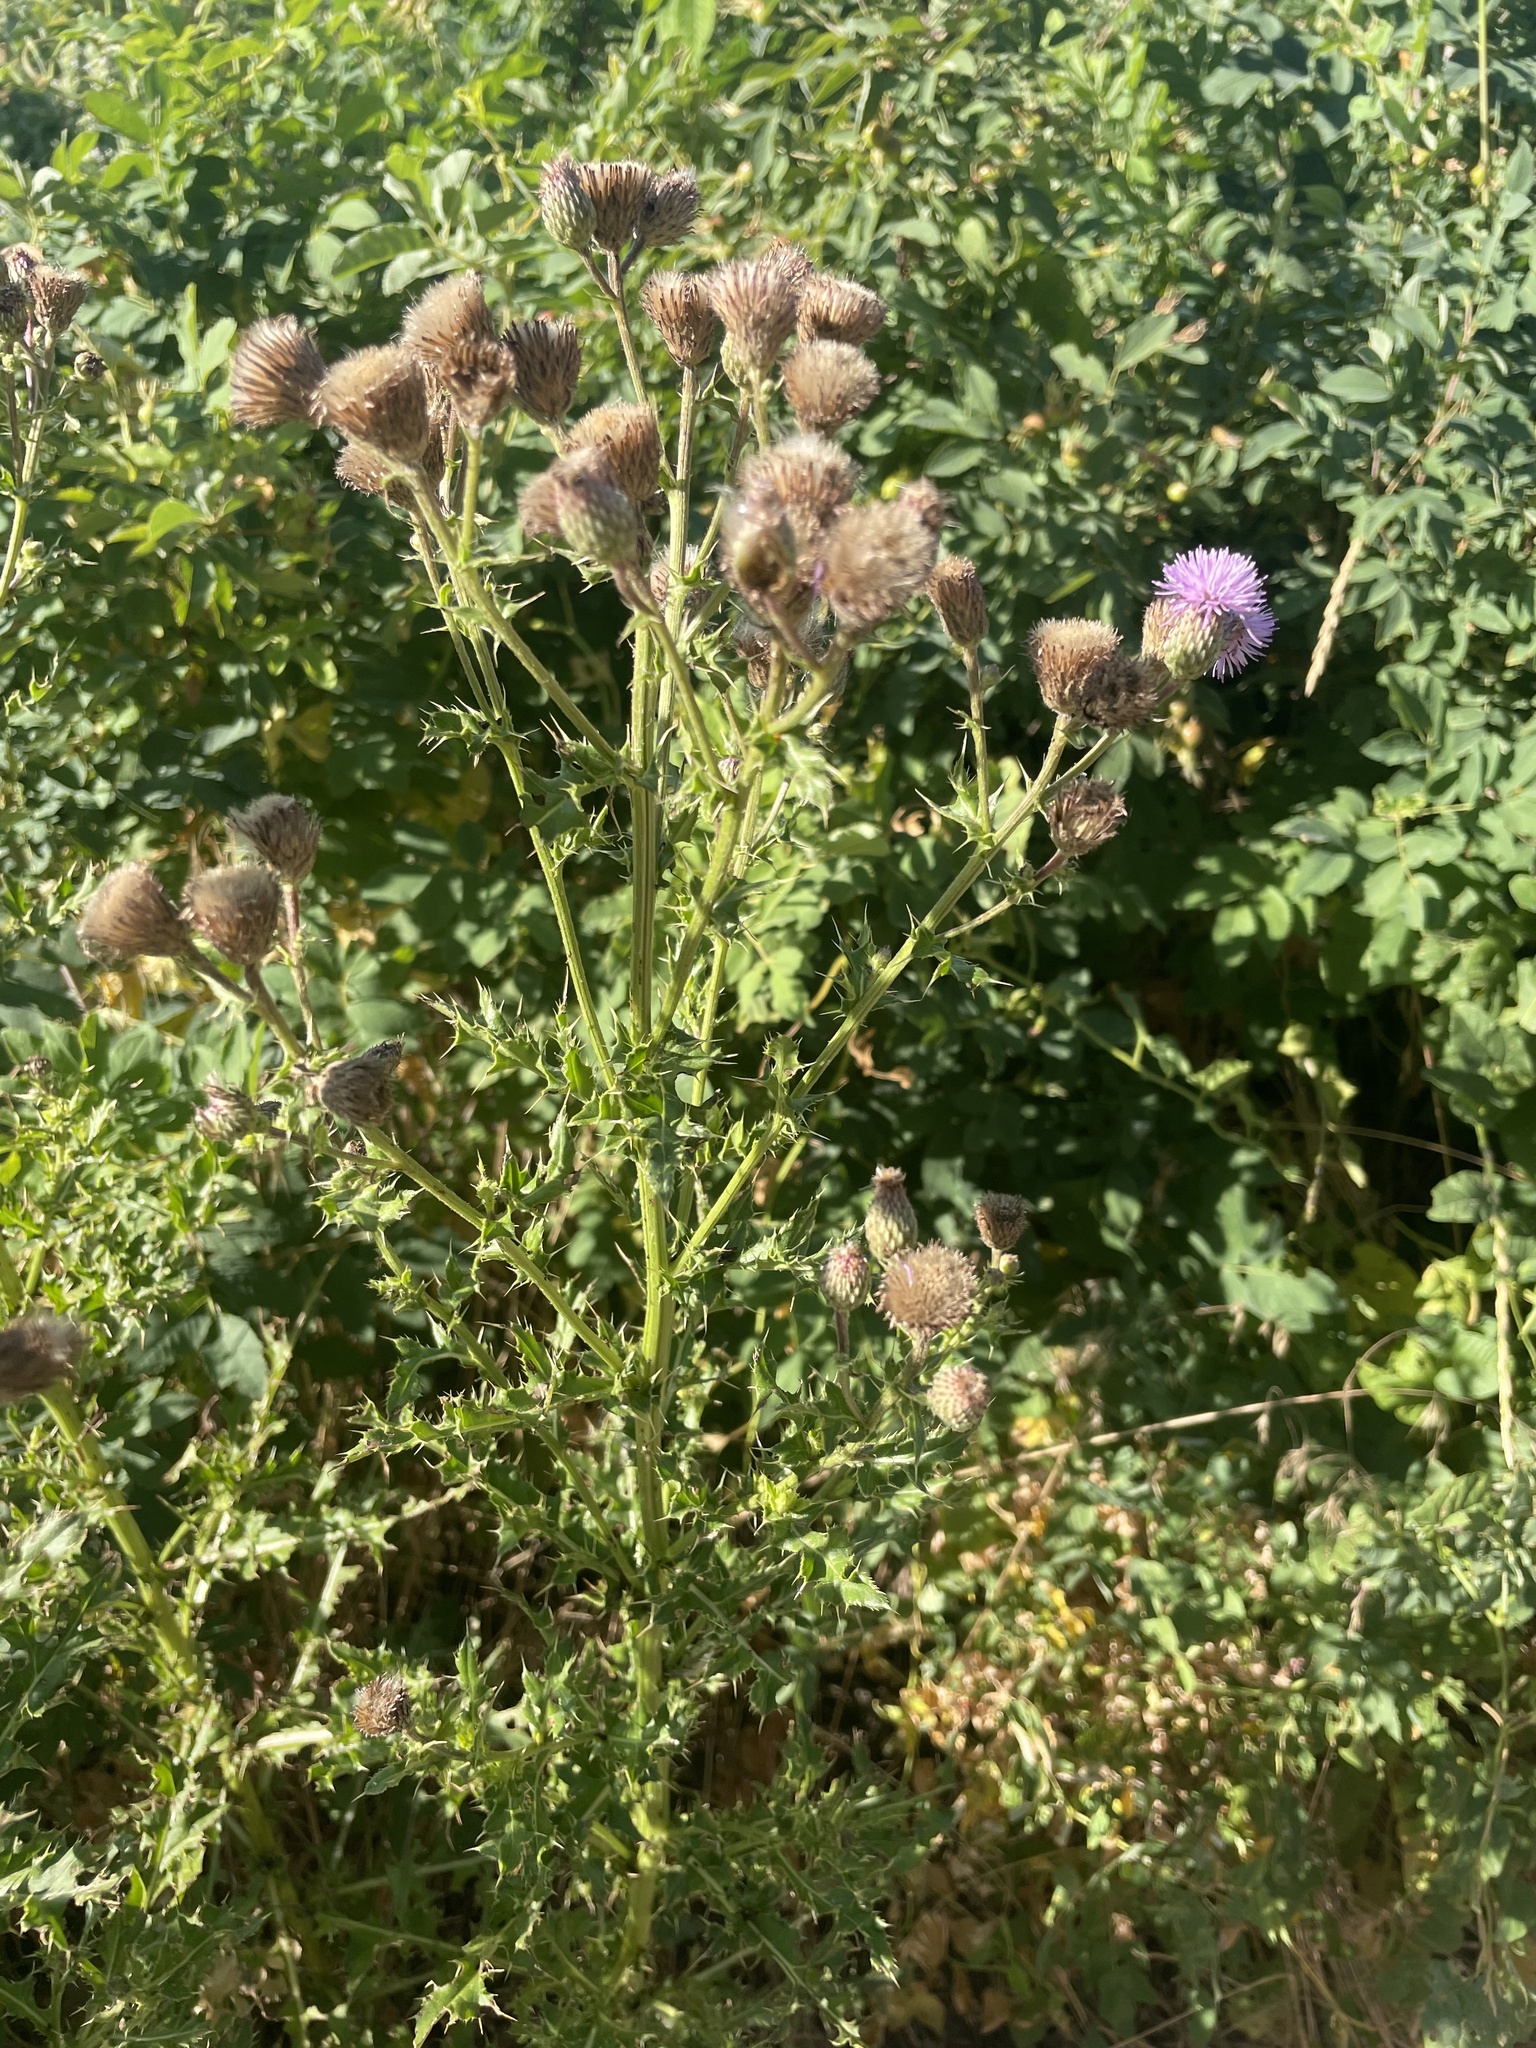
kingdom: Plantae
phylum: Tracheophyta
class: Magnoliopsida
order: Asterales
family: Asteraceae
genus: Cirsium
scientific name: Cirsium arvense
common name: Creeping thistle
